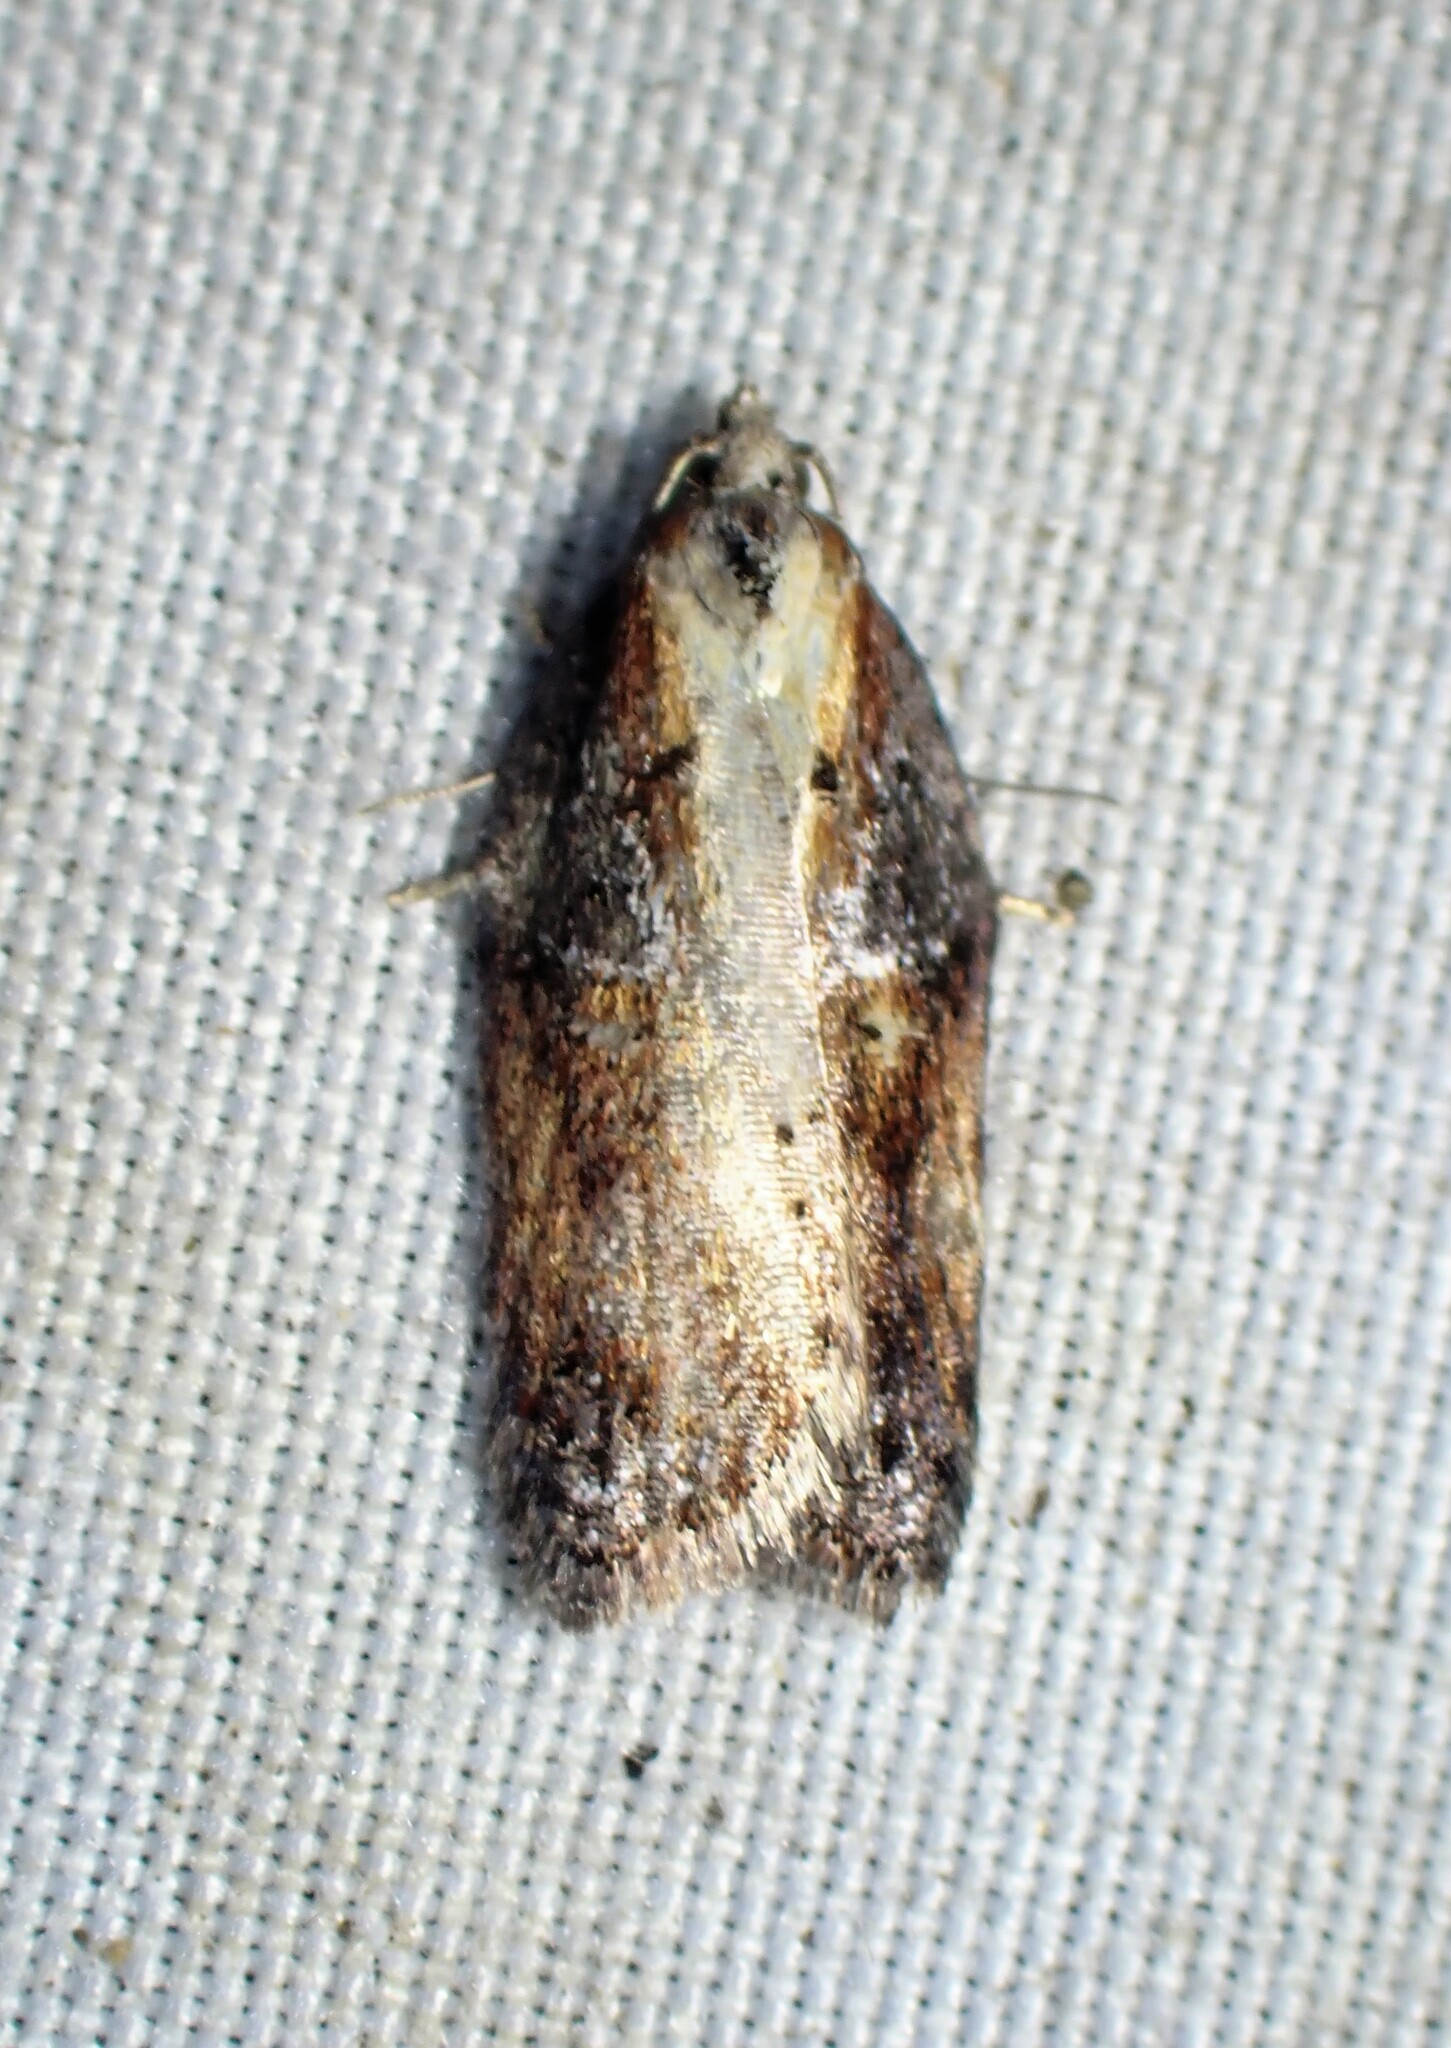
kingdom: Animalia
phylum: Arthropoda
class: Insecta
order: Lepidoptera
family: Tortricidae
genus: Acleris
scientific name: Acleris robinsoniana
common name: Robinson's acleris moth
